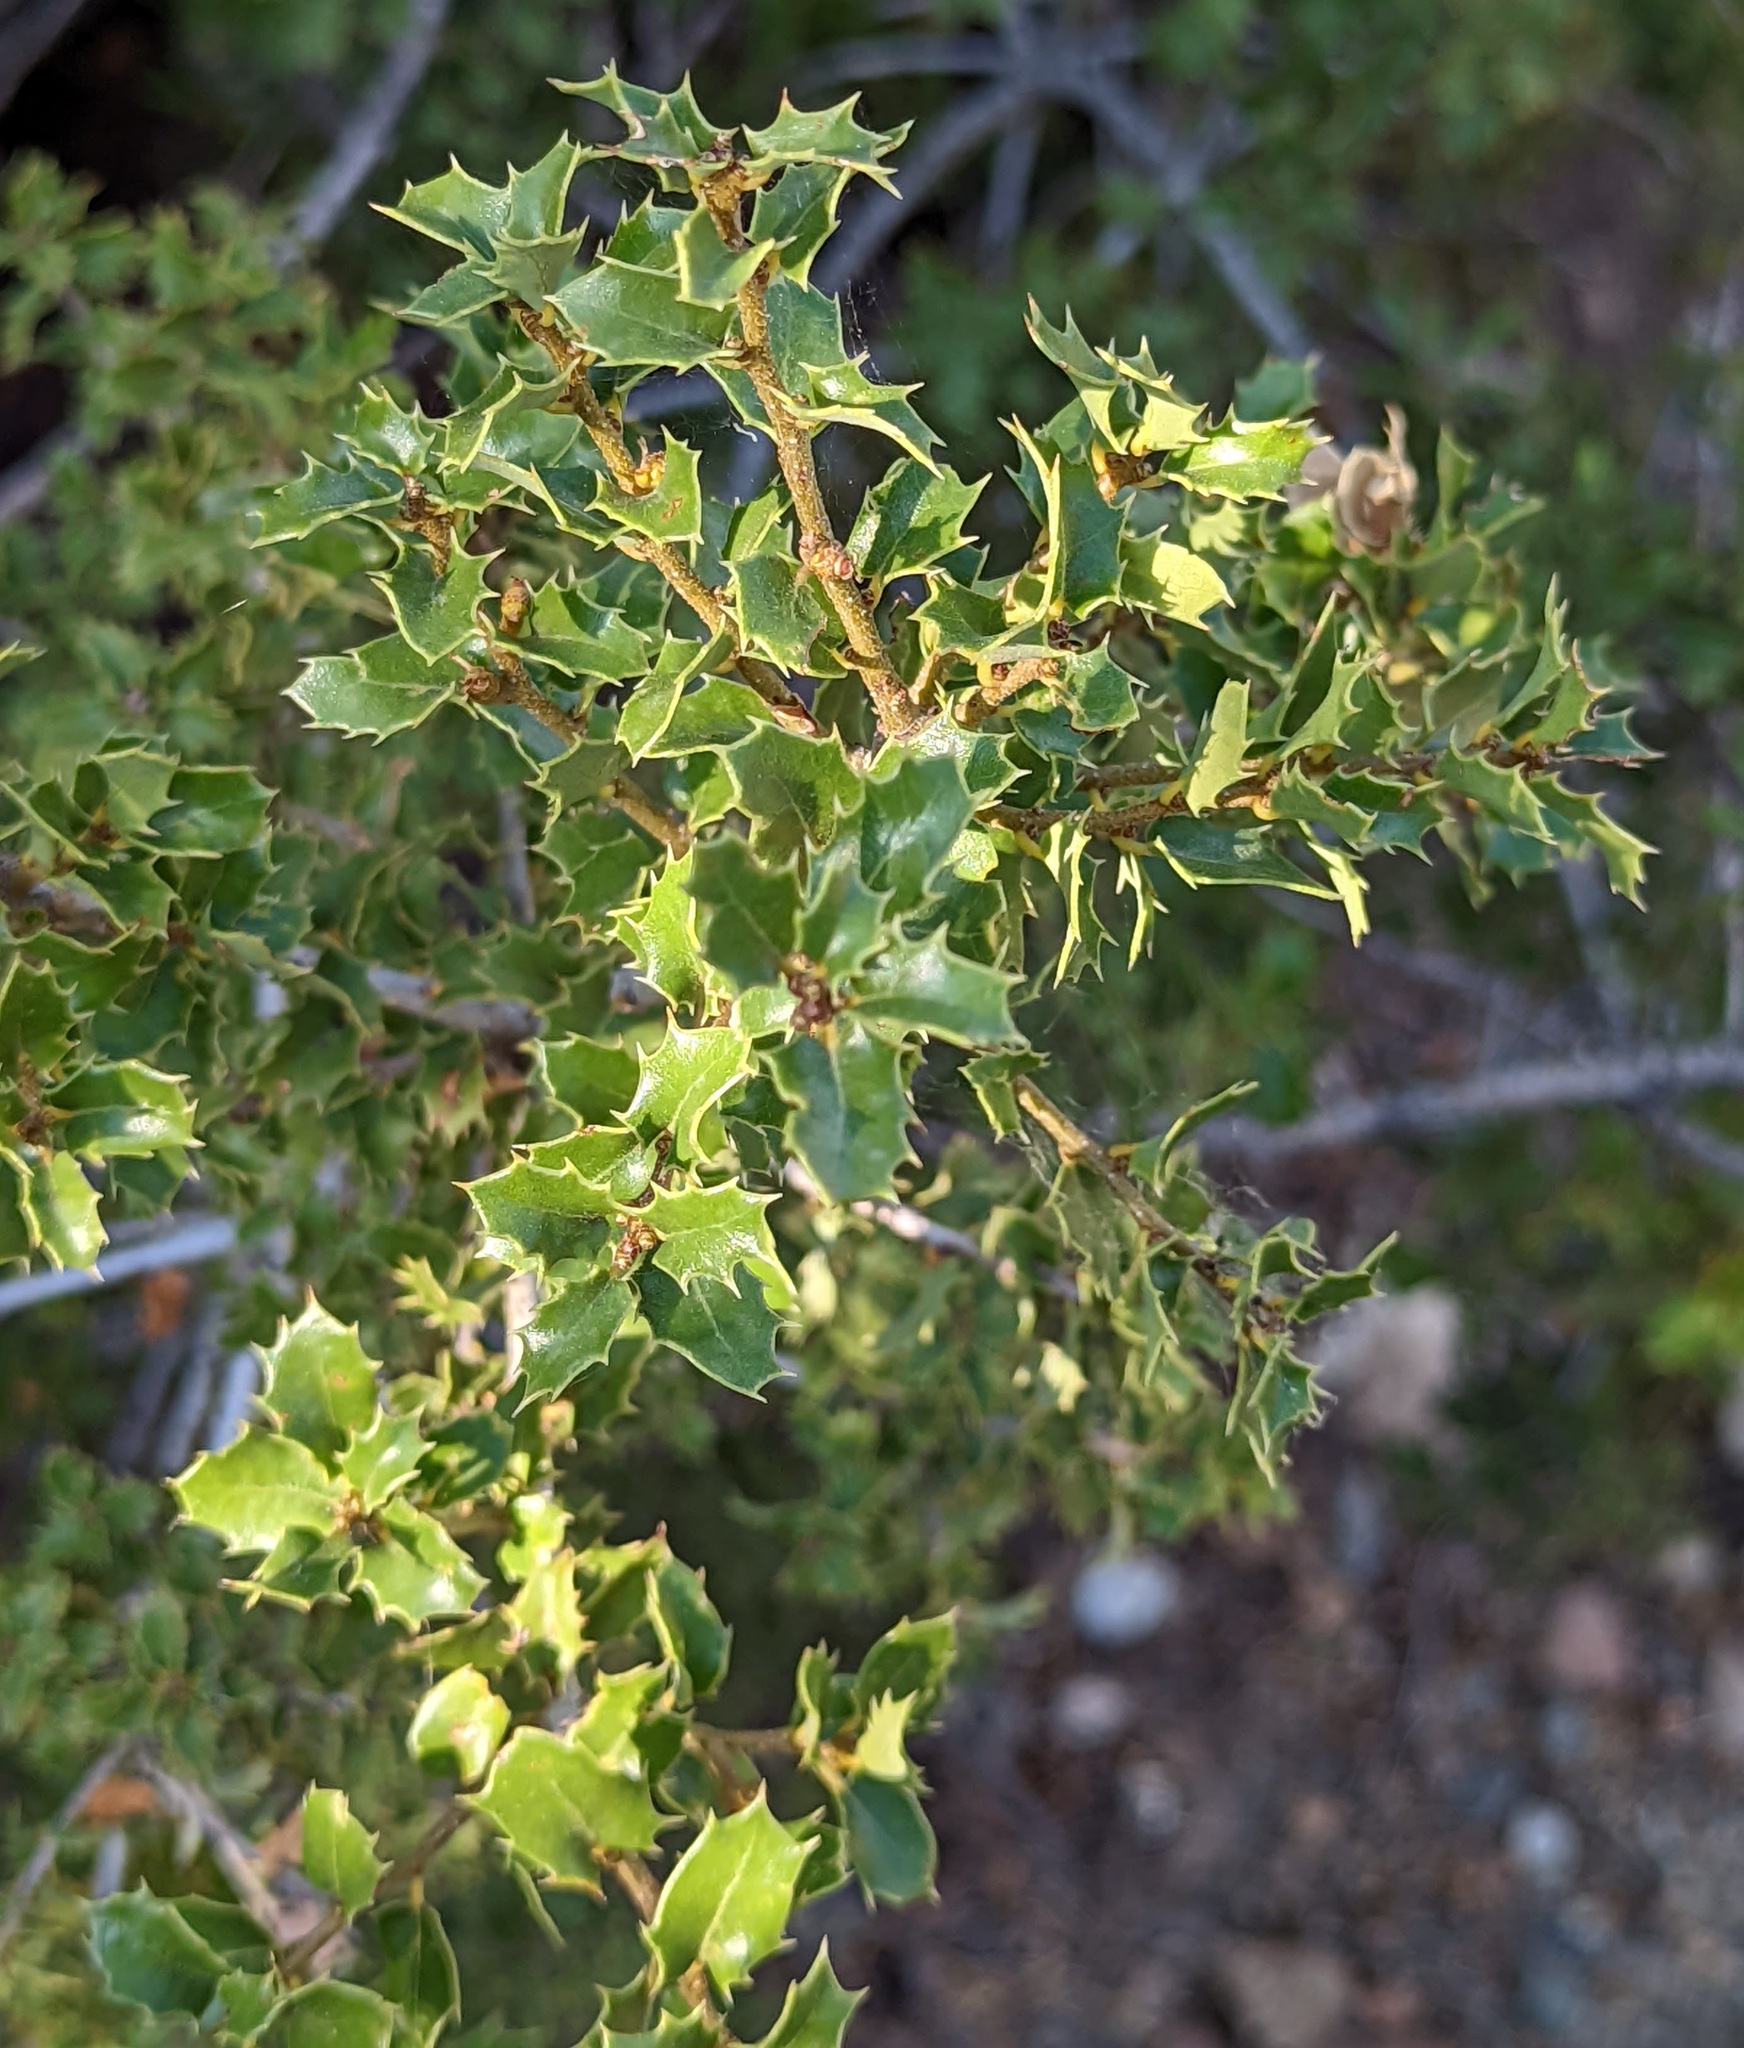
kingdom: Plantae
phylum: Tracheophyta
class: Magnoliopsida
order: Fagales
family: Fagaceae
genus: Quercus
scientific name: Quercus coccifera
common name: Kermes oak
